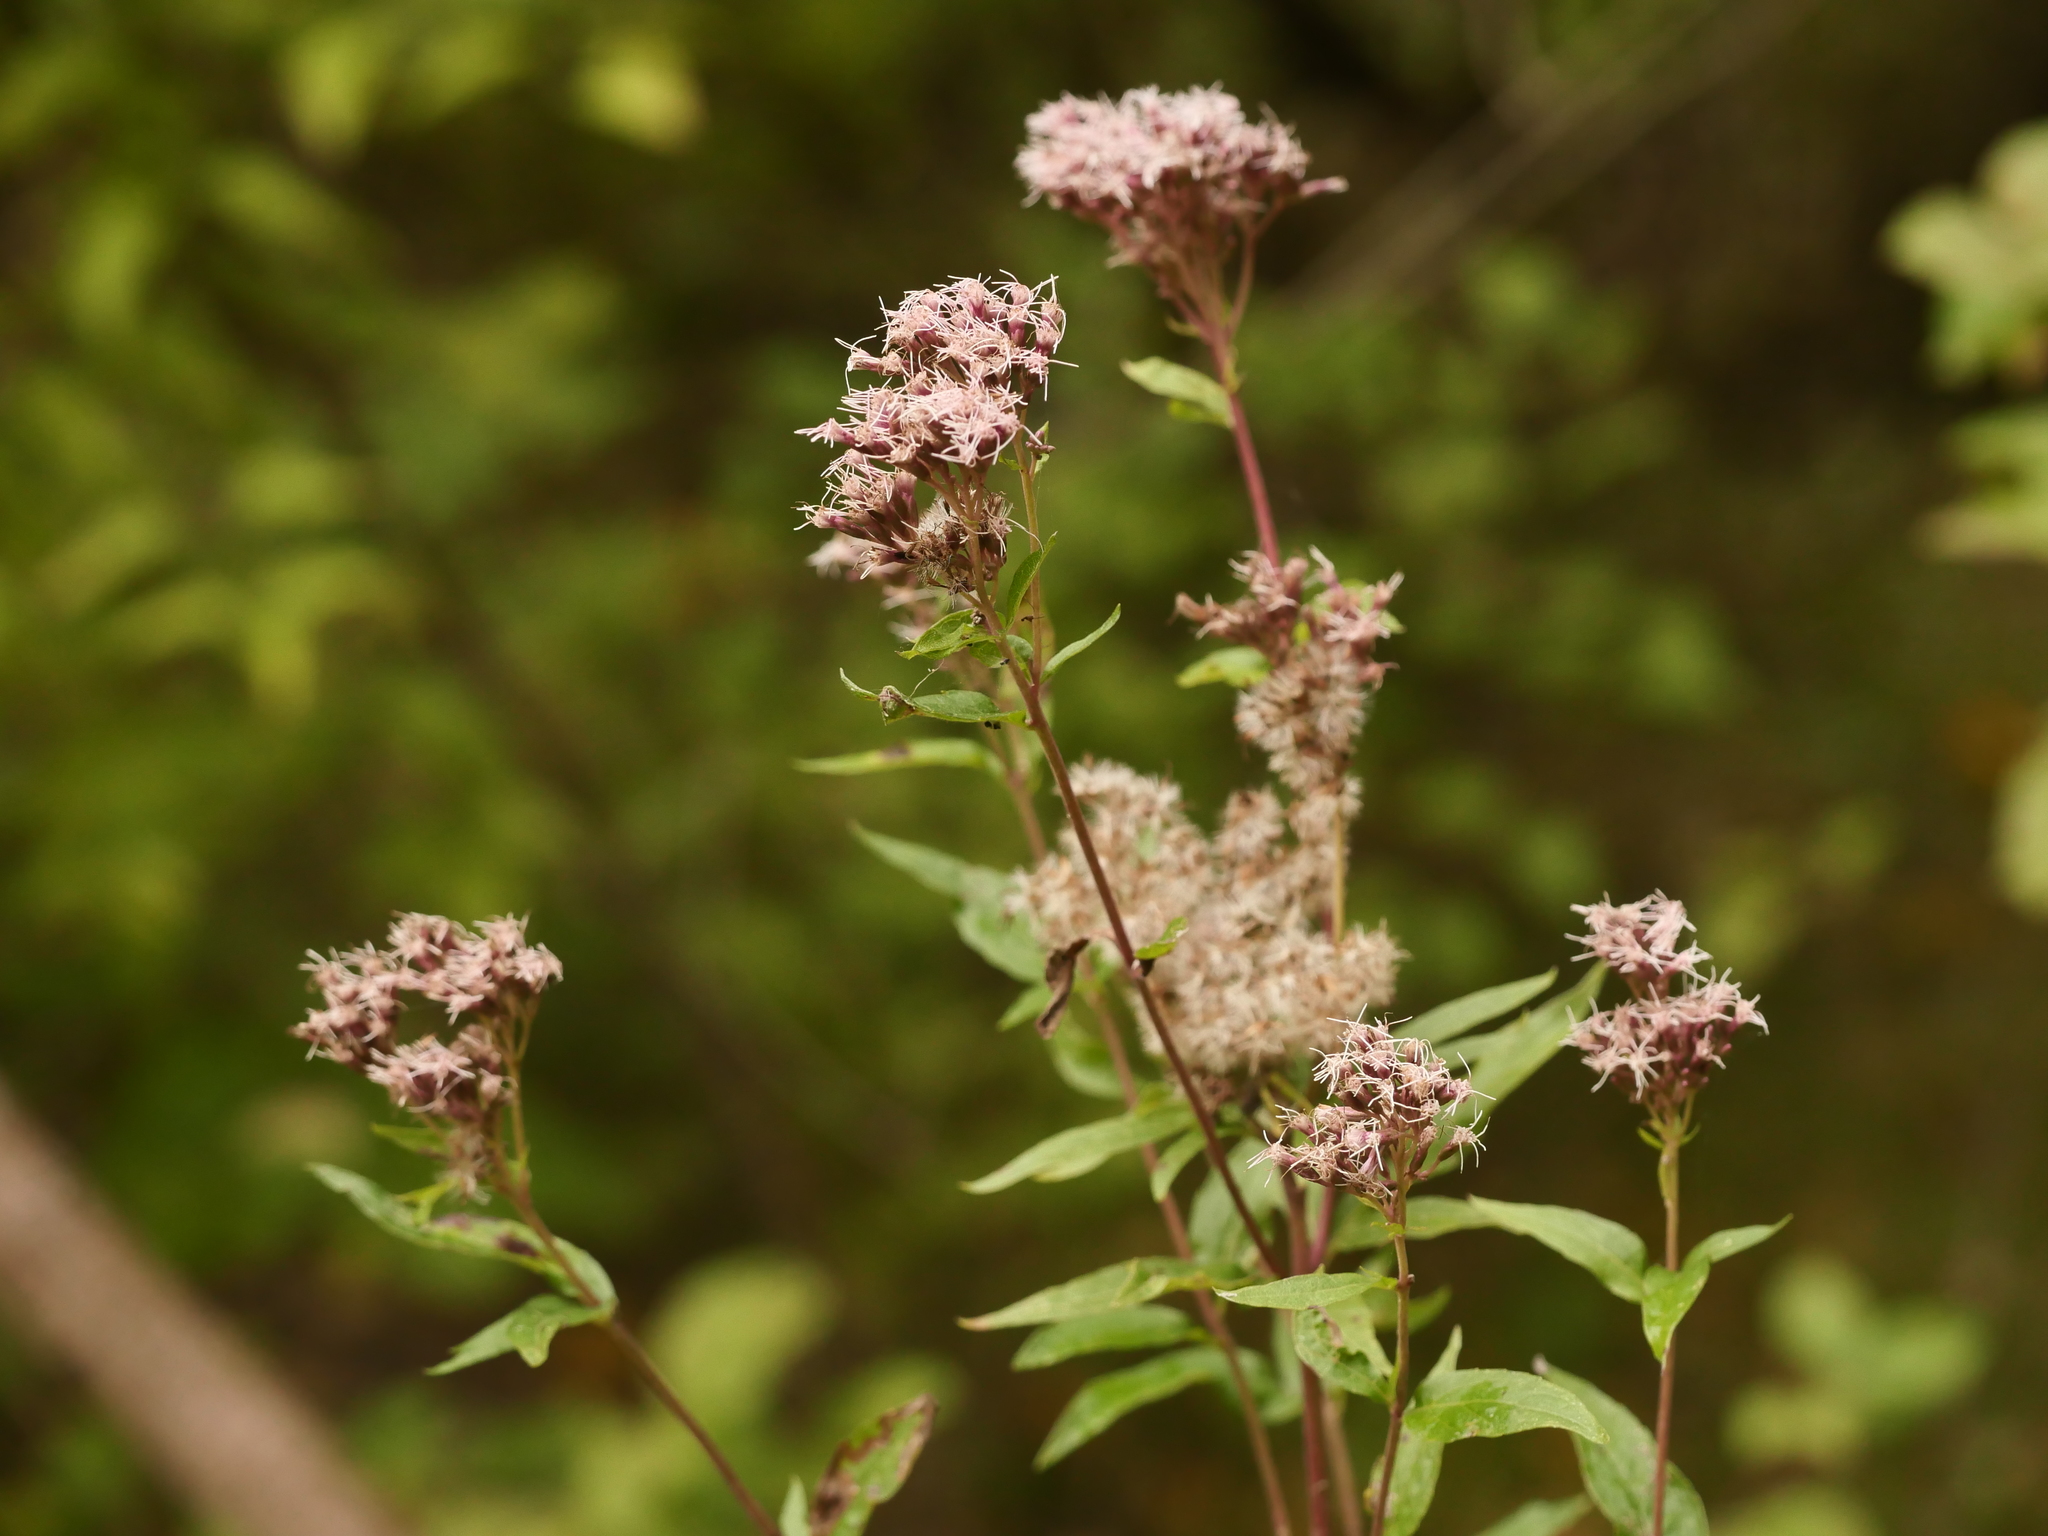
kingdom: Plantae
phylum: Tracheophyta
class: Magnoliopsida
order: Asterales
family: Asteraceae
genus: Eupatorium
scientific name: Eupatorium cannabinum
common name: Hemp-agrimony
